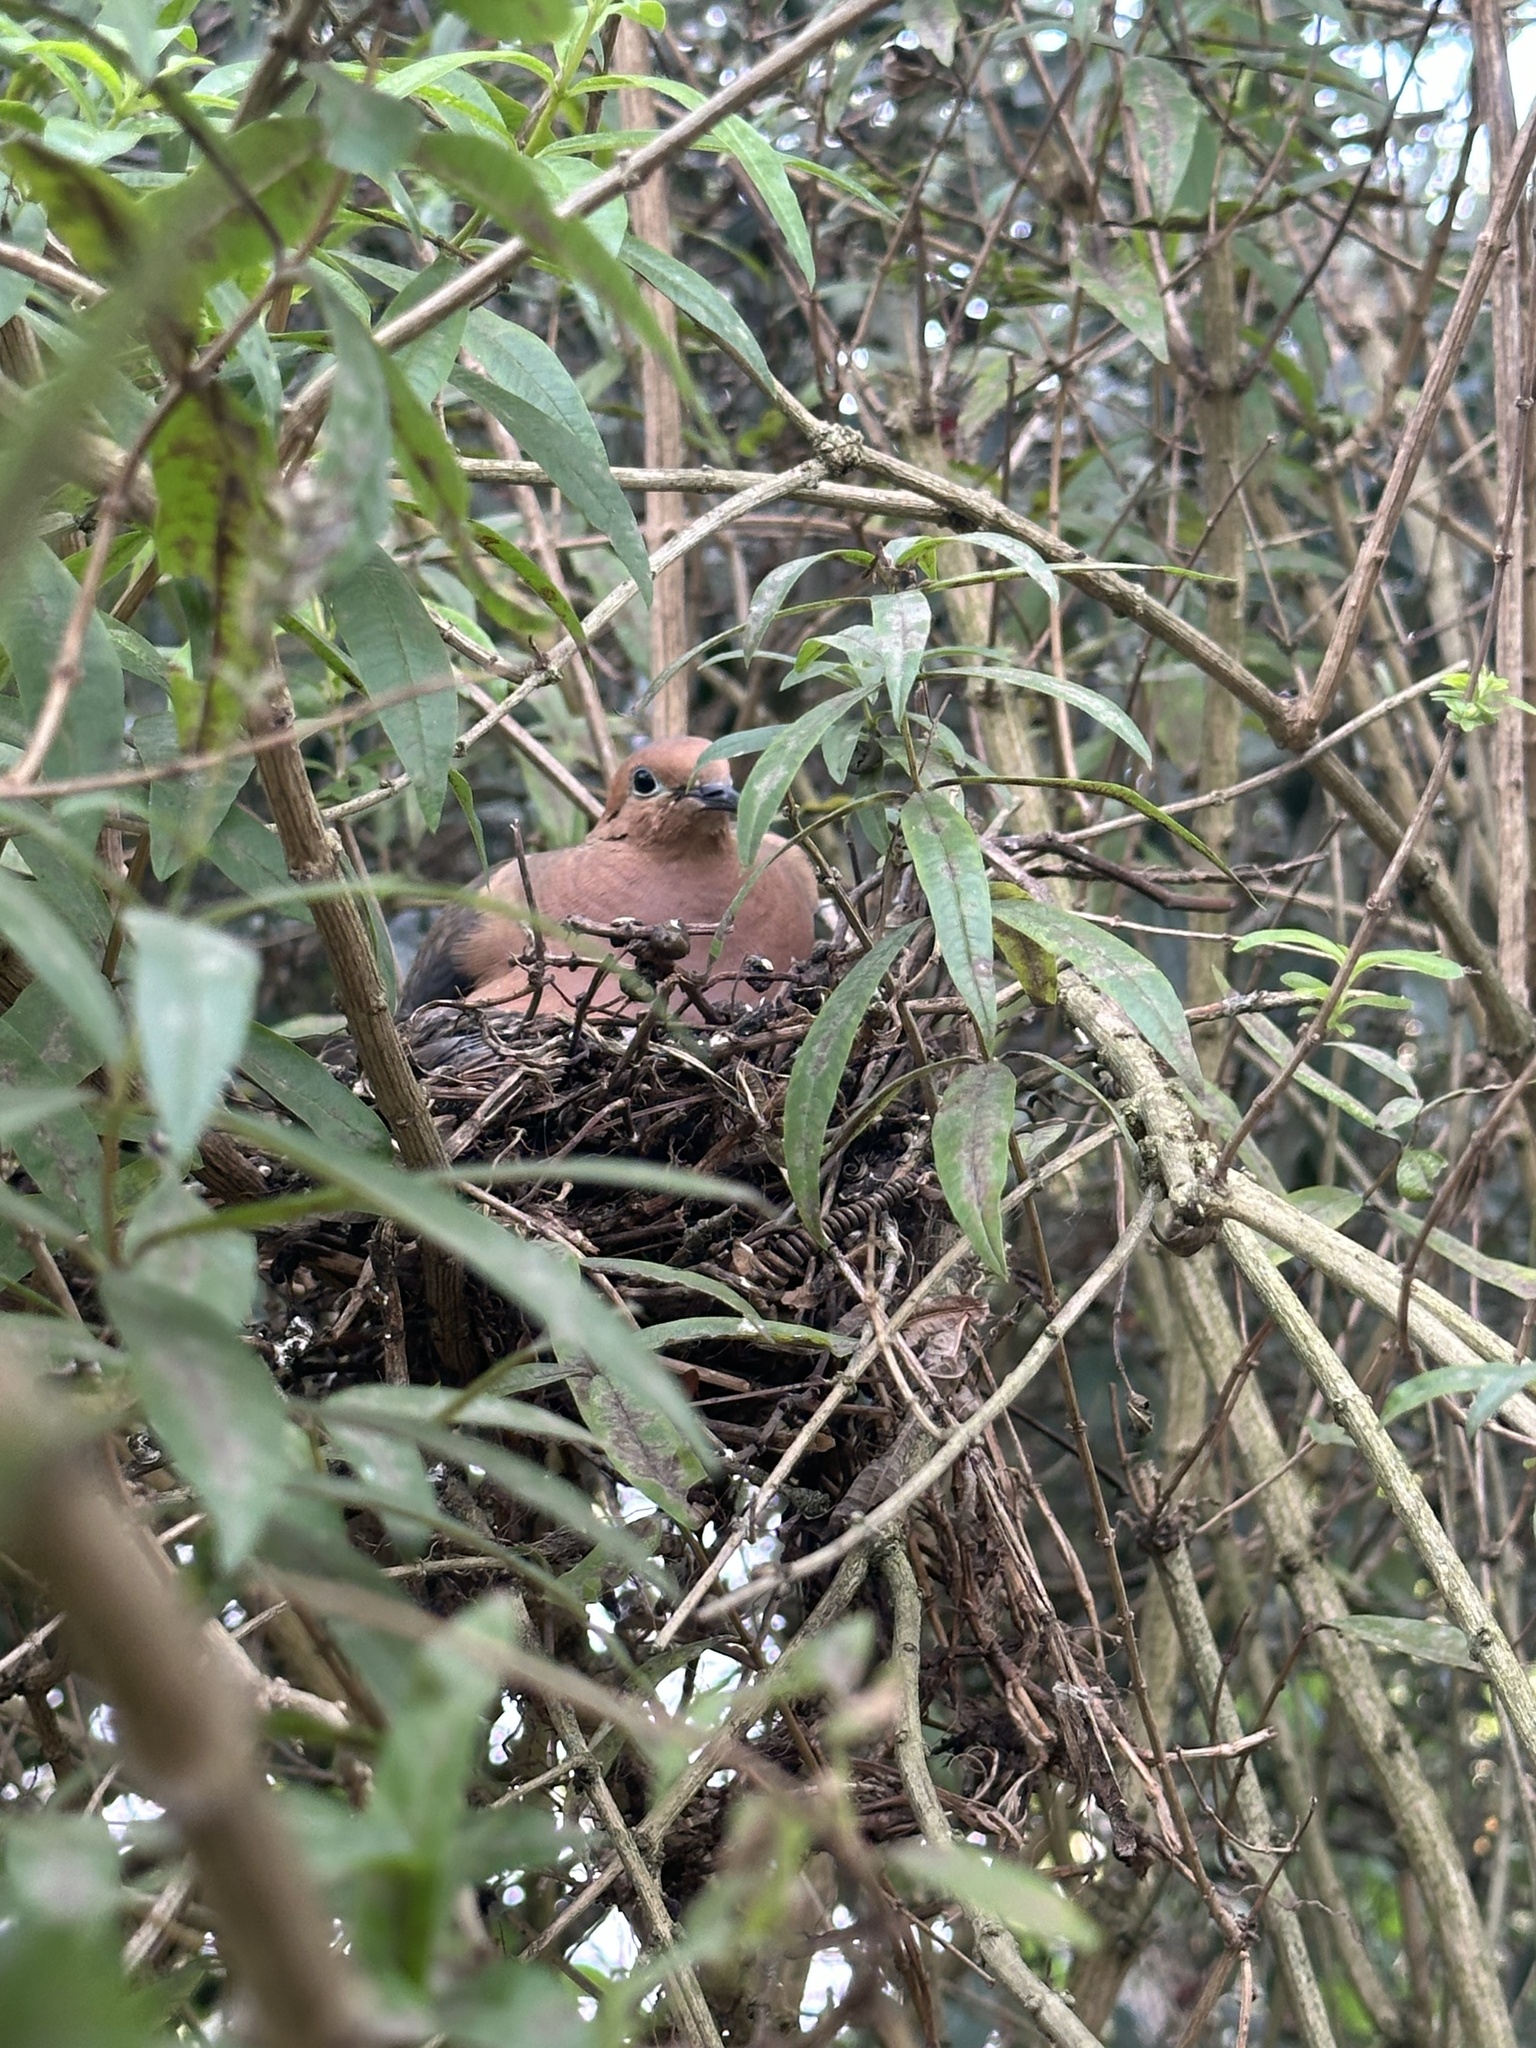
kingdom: Animalia
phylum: Chordata
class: Aves
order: Columbiformes
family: Columbidae
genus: Zenaida
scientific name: Zenaida auriculata
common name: Eared dove
